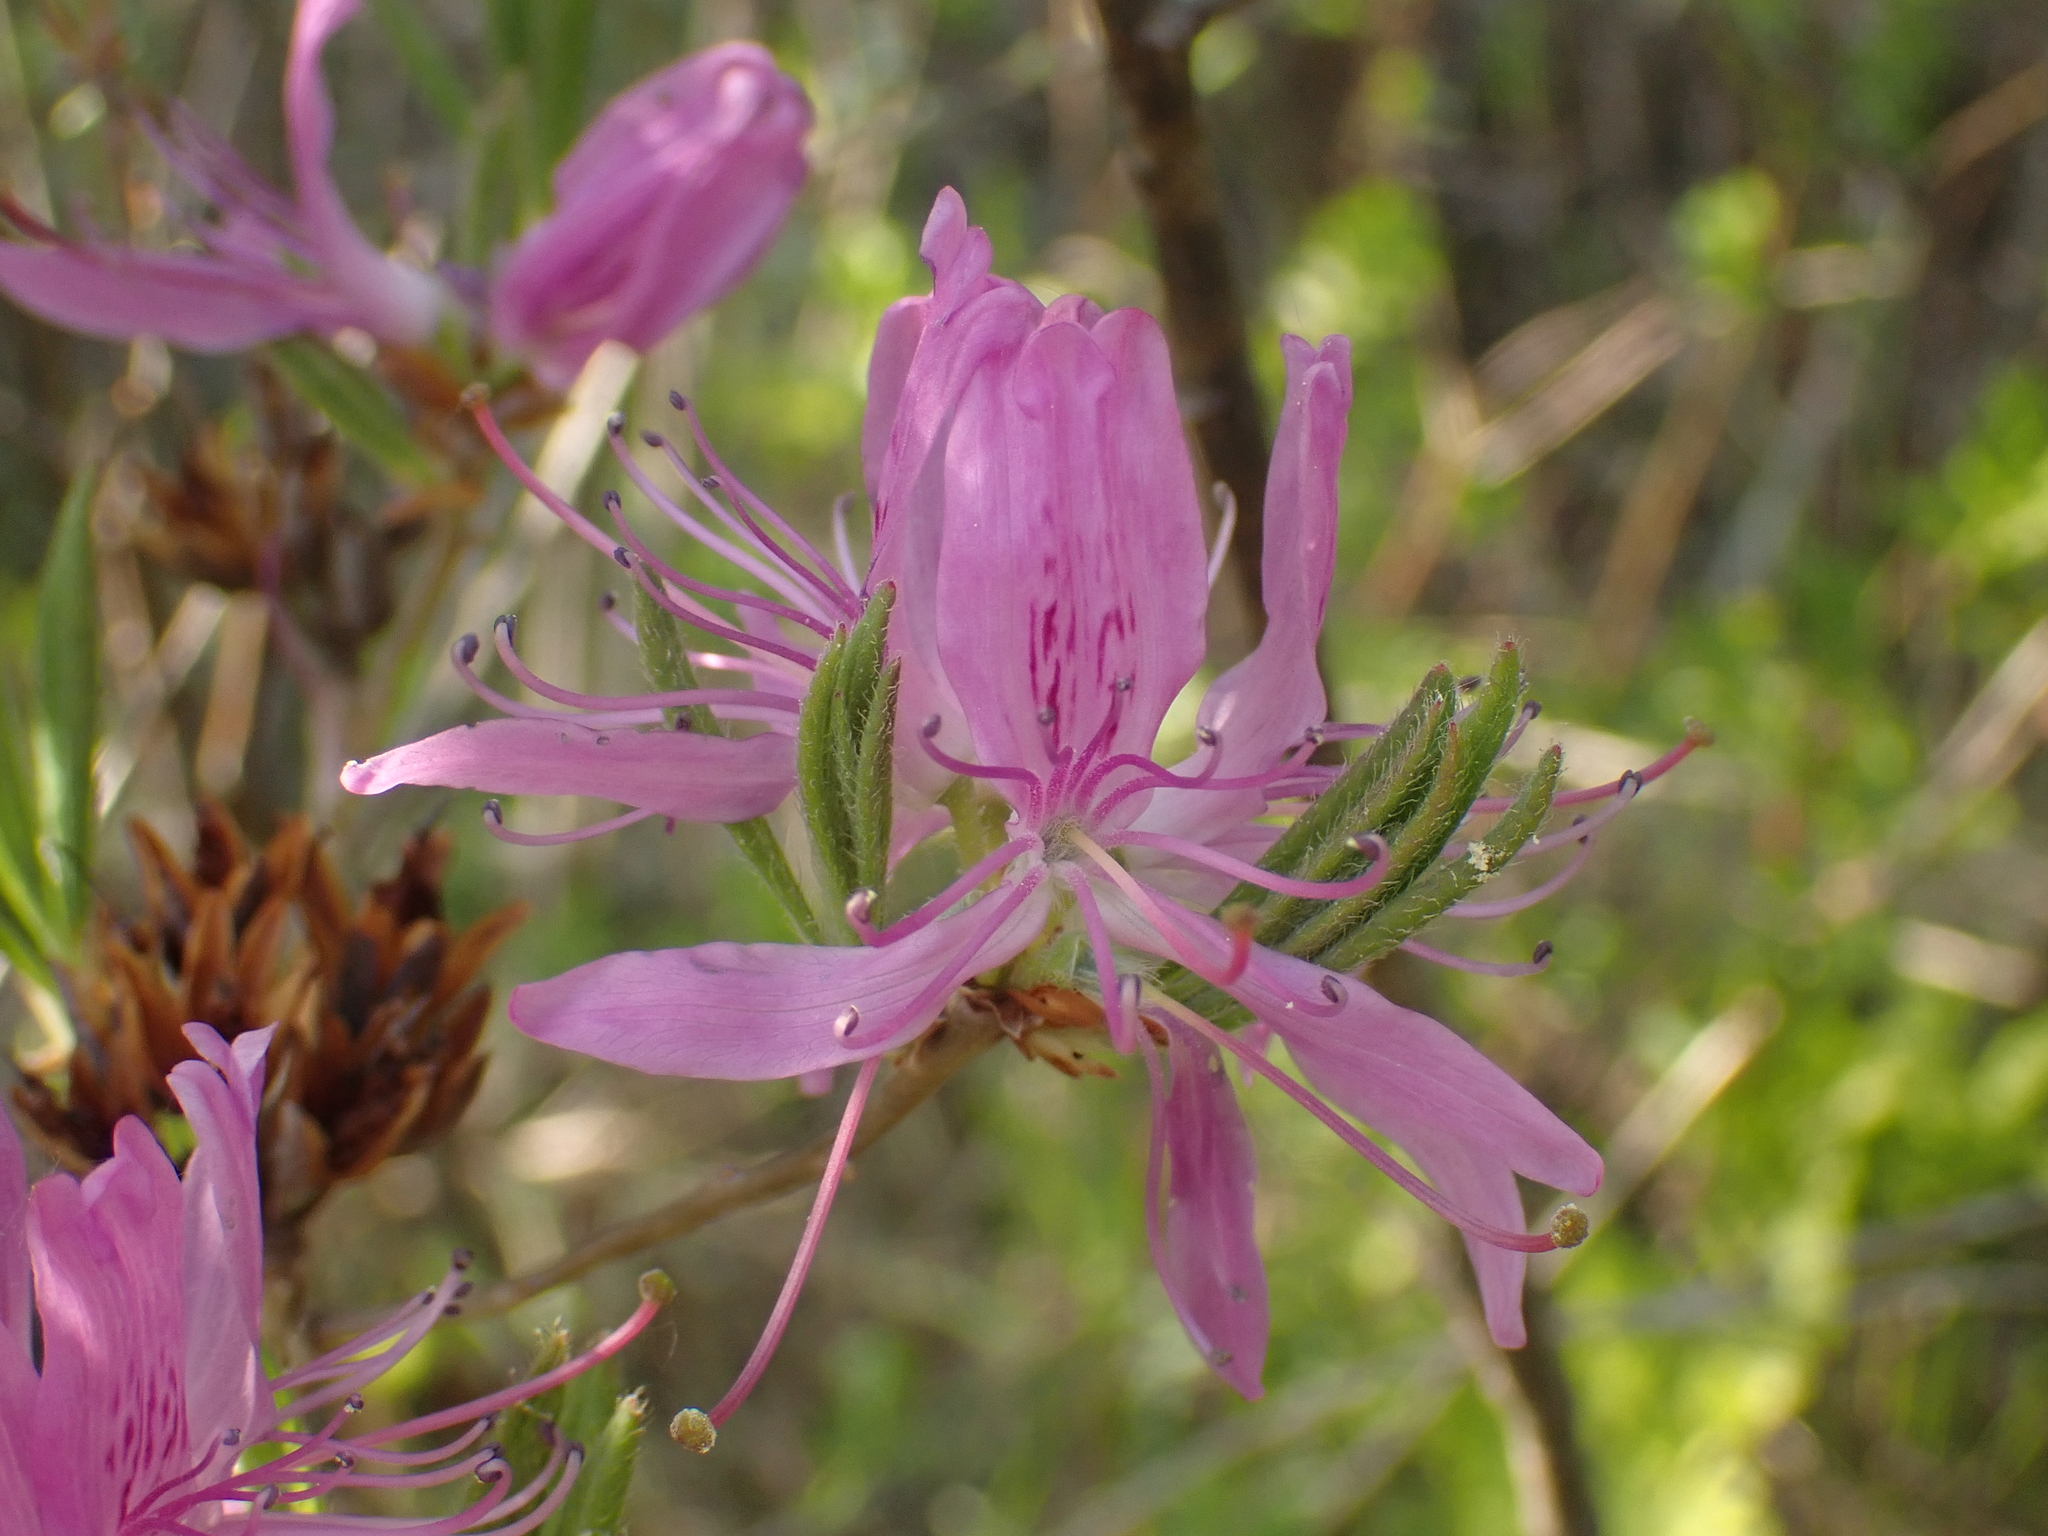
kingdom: Plantae
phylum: Tracheophyta
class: Magnoliopsida
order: Ericales
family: Ericaceae
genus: Rhododendron
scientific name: Rhododendron canadense
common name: Rhodora
